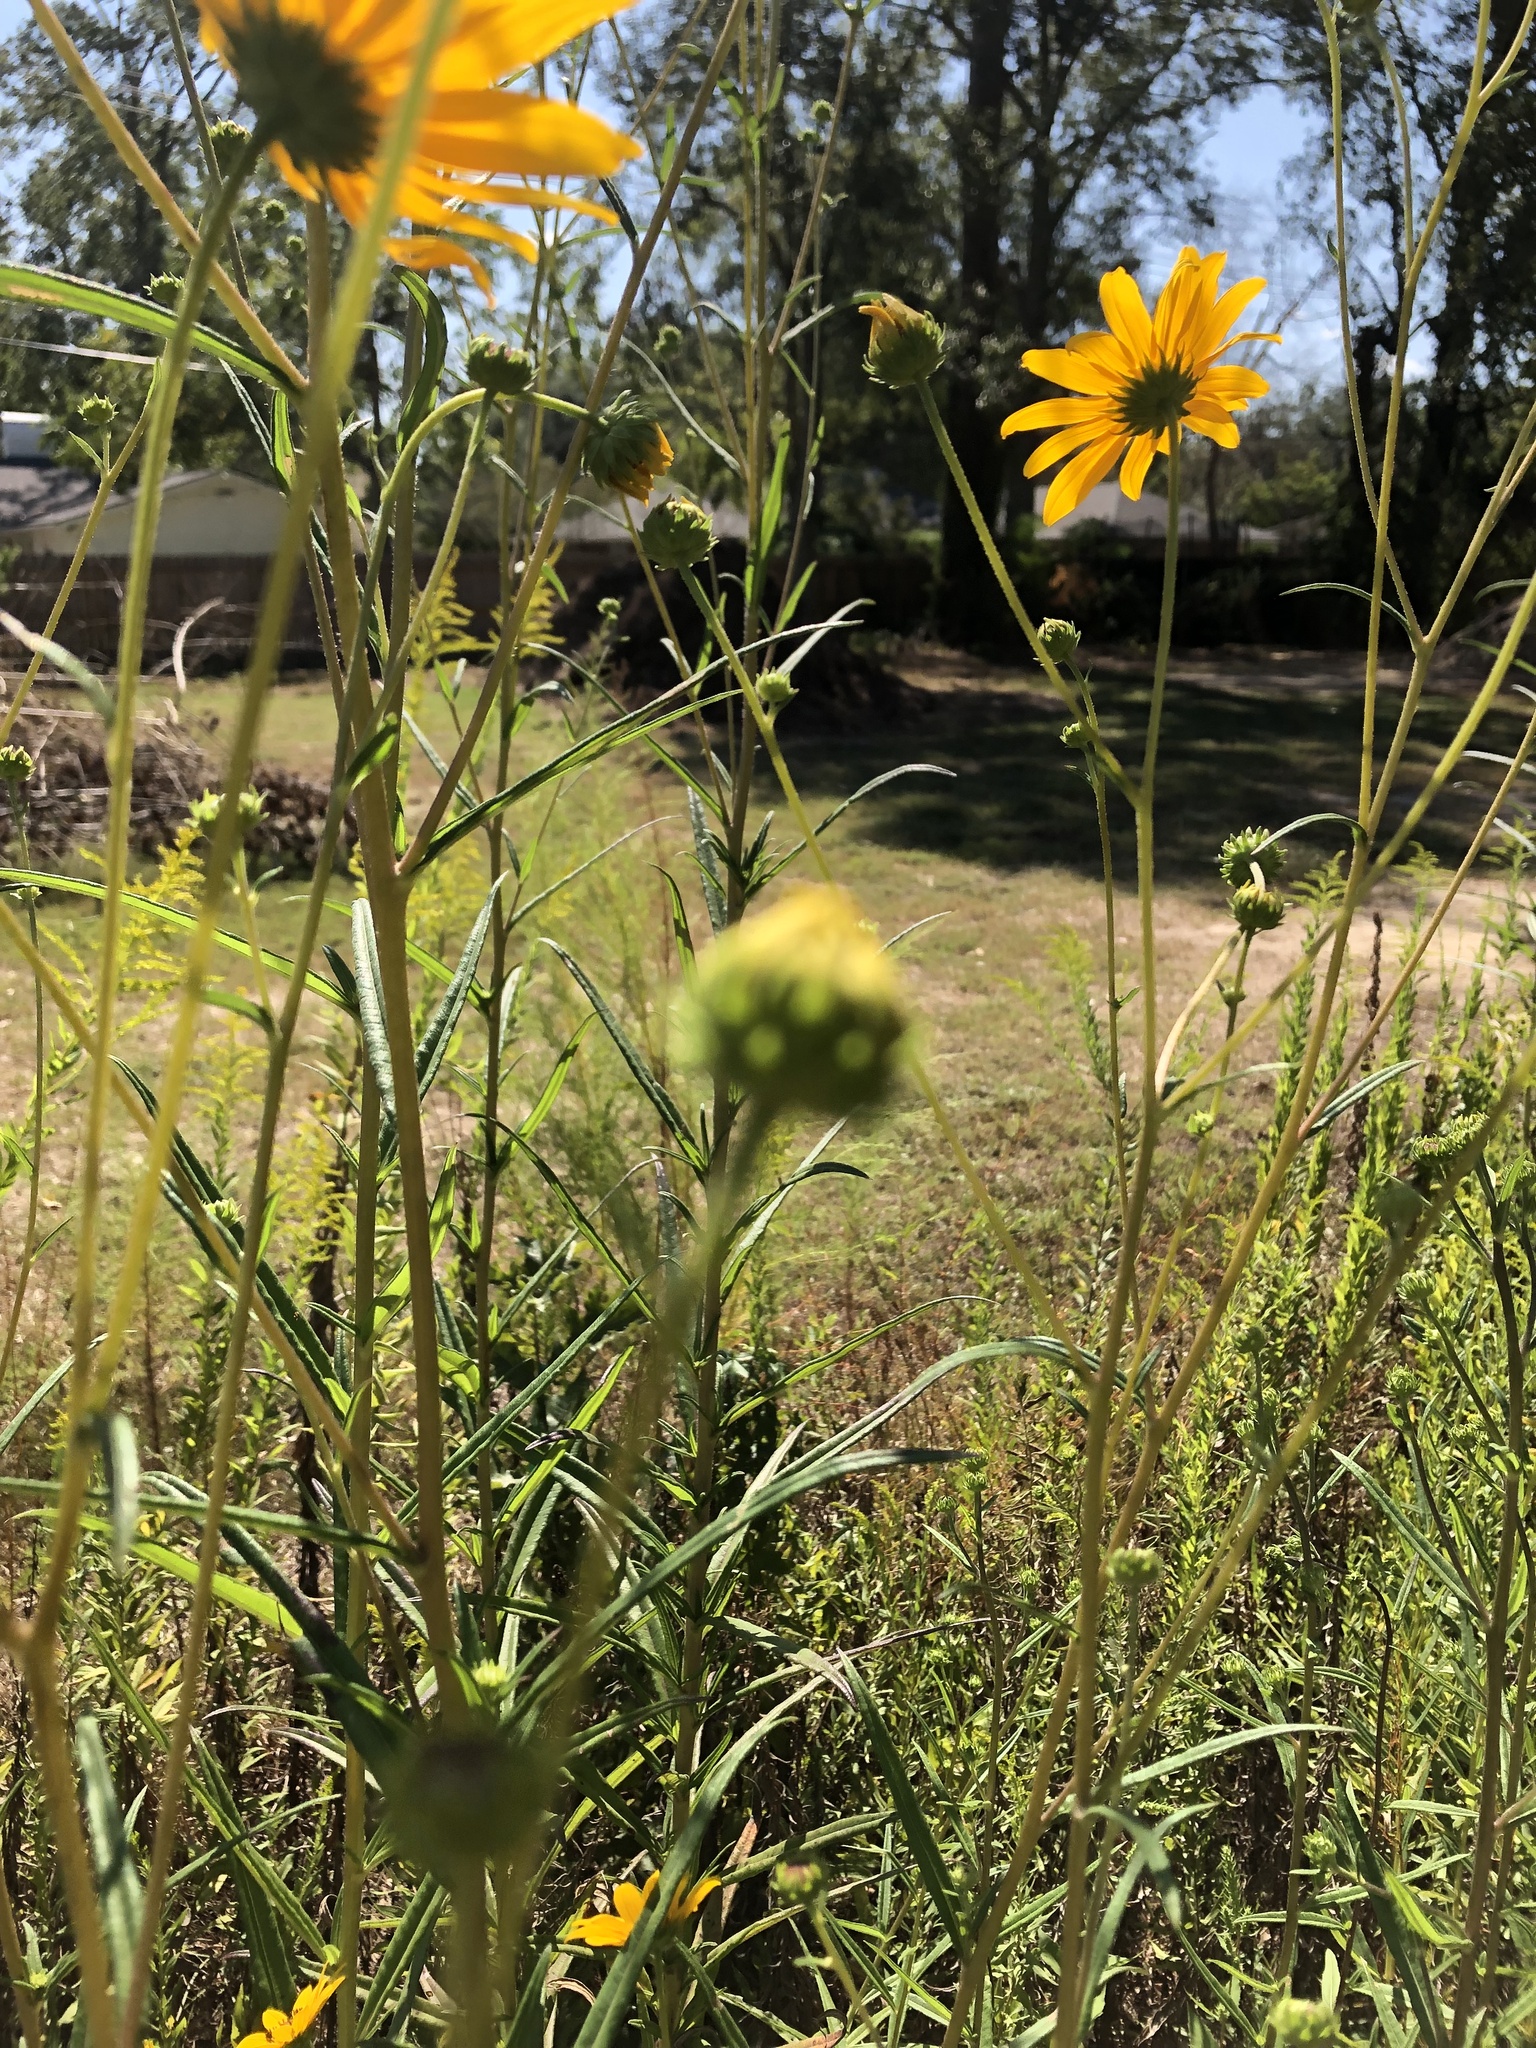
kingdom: Plantae
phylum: Tracheophyta
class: Magnoliopsida
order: Asterales
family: Asteraceae
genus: Helianthus
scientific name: Helianthus angustifolius
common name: Swamp sunflower
